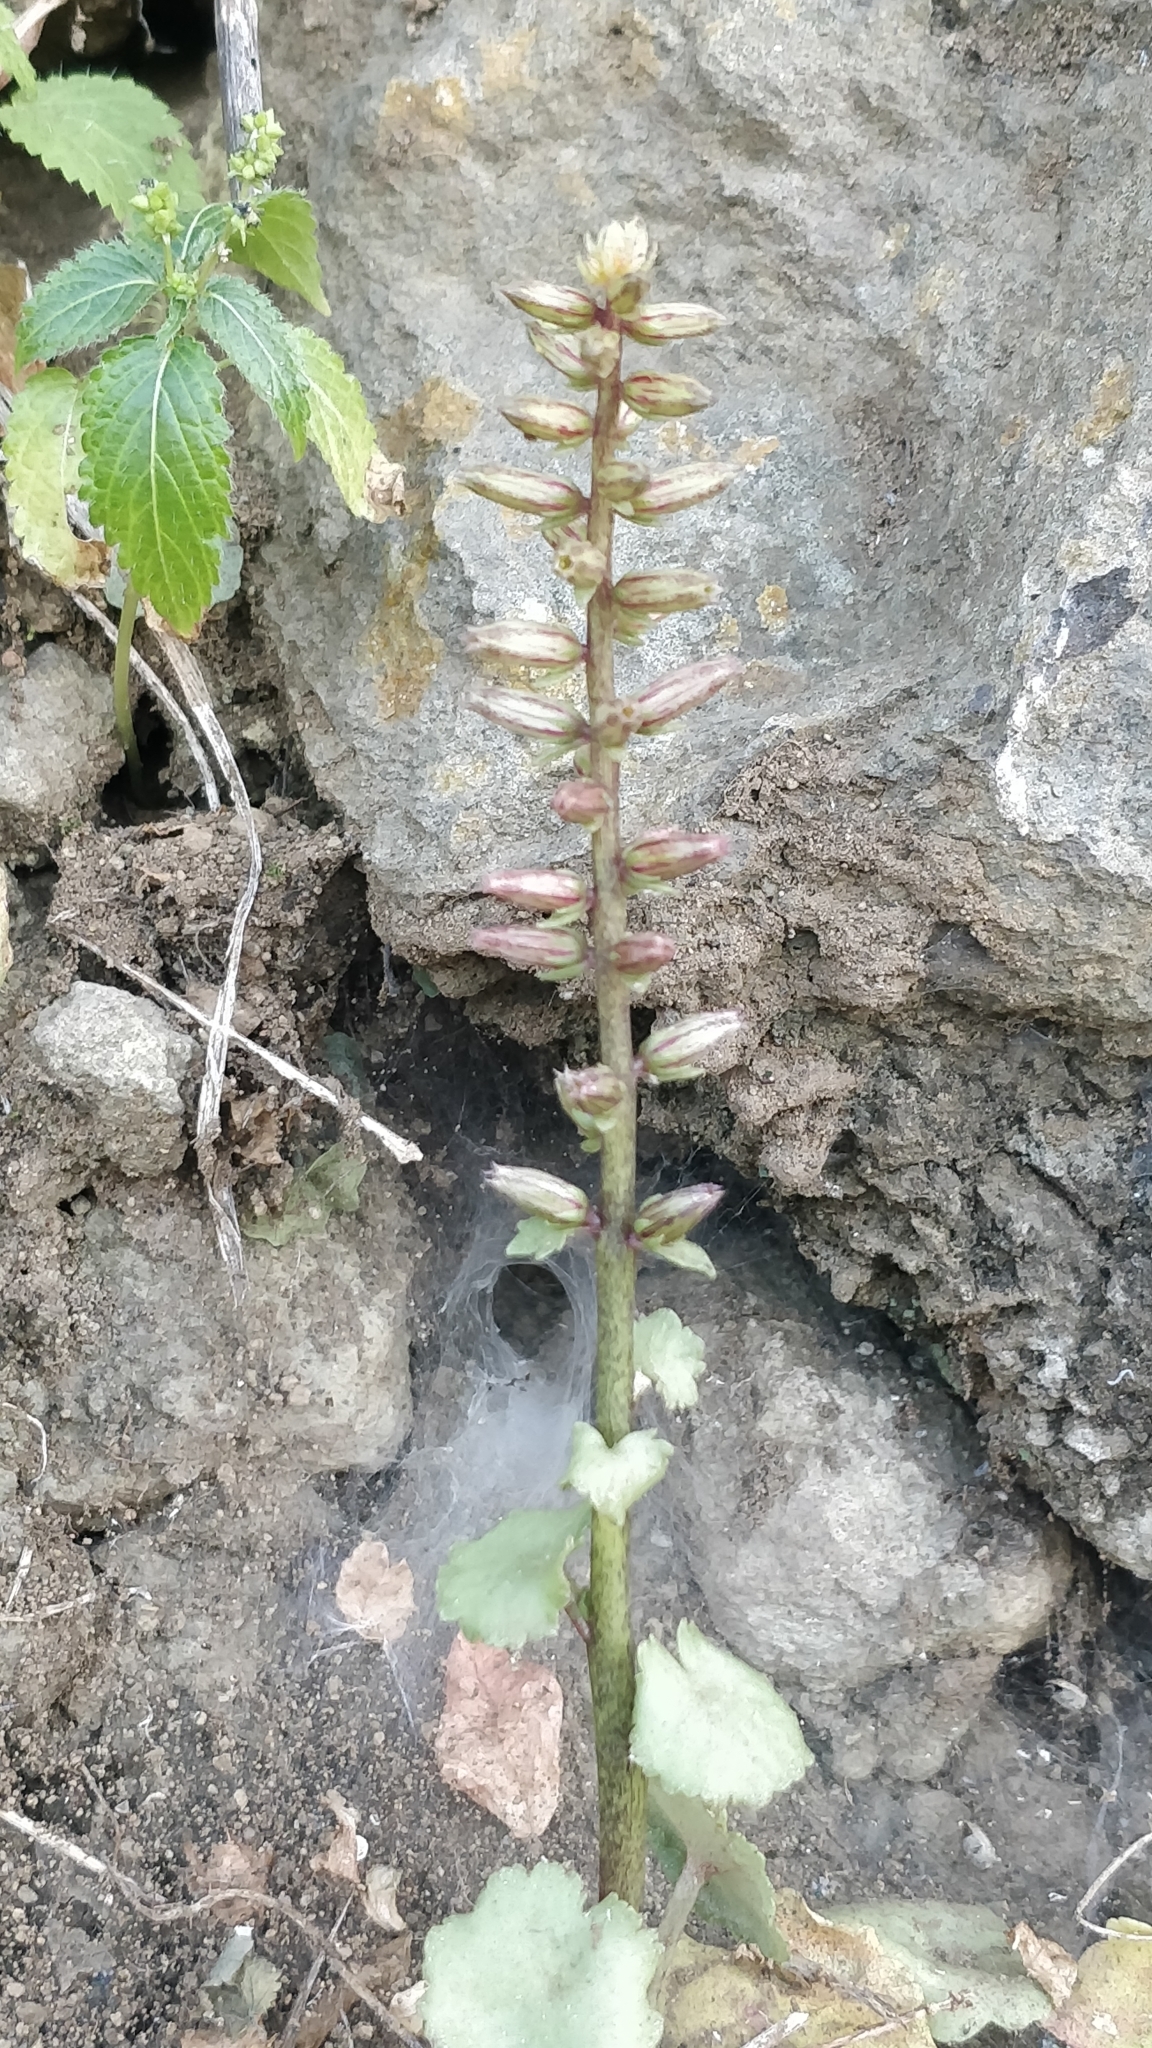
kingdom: Plantae
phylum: Tracheophyta
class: Magnoliopsida
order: Saxifragales
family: Crassulaceae
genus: Umbilicus
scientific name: Umbilicus horizontalis
